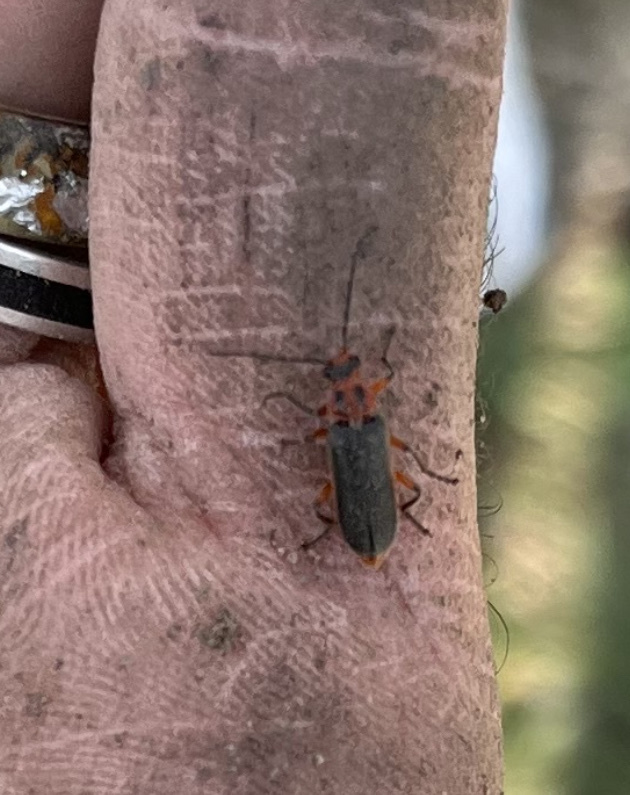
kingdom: Animalia
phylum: Arthropoda
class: Insecta
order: Coleoptera
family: Cantharidae
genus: Atalantycha
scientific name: Atalantycha bilineata
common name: Two-lined leatherwing
